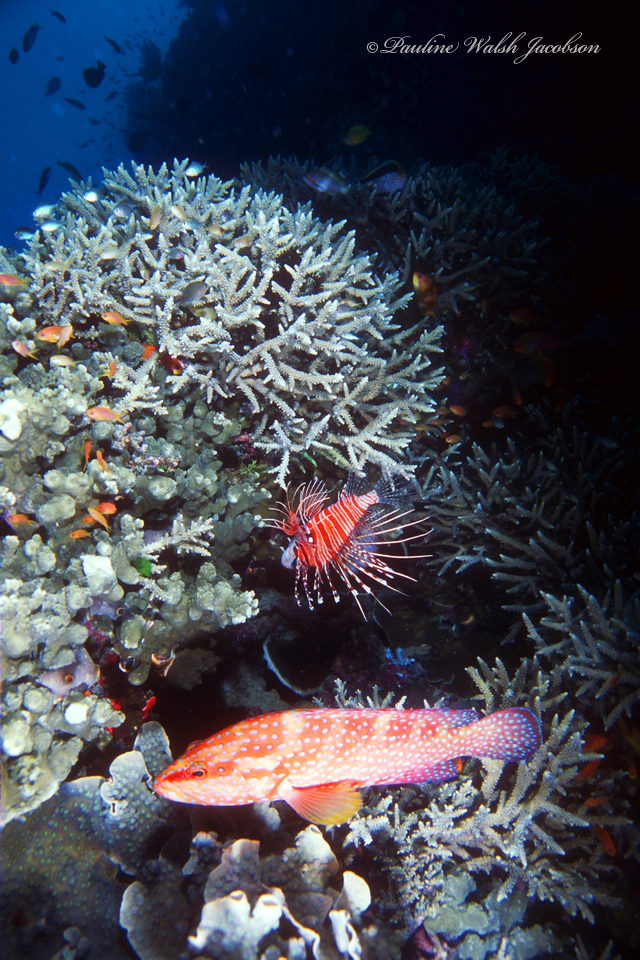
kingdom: Animalia
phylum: Chordata
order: Perciformes
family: Serranidae
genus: Cephalopholis
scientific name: Cephalopholis miniata
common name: Coral hind
